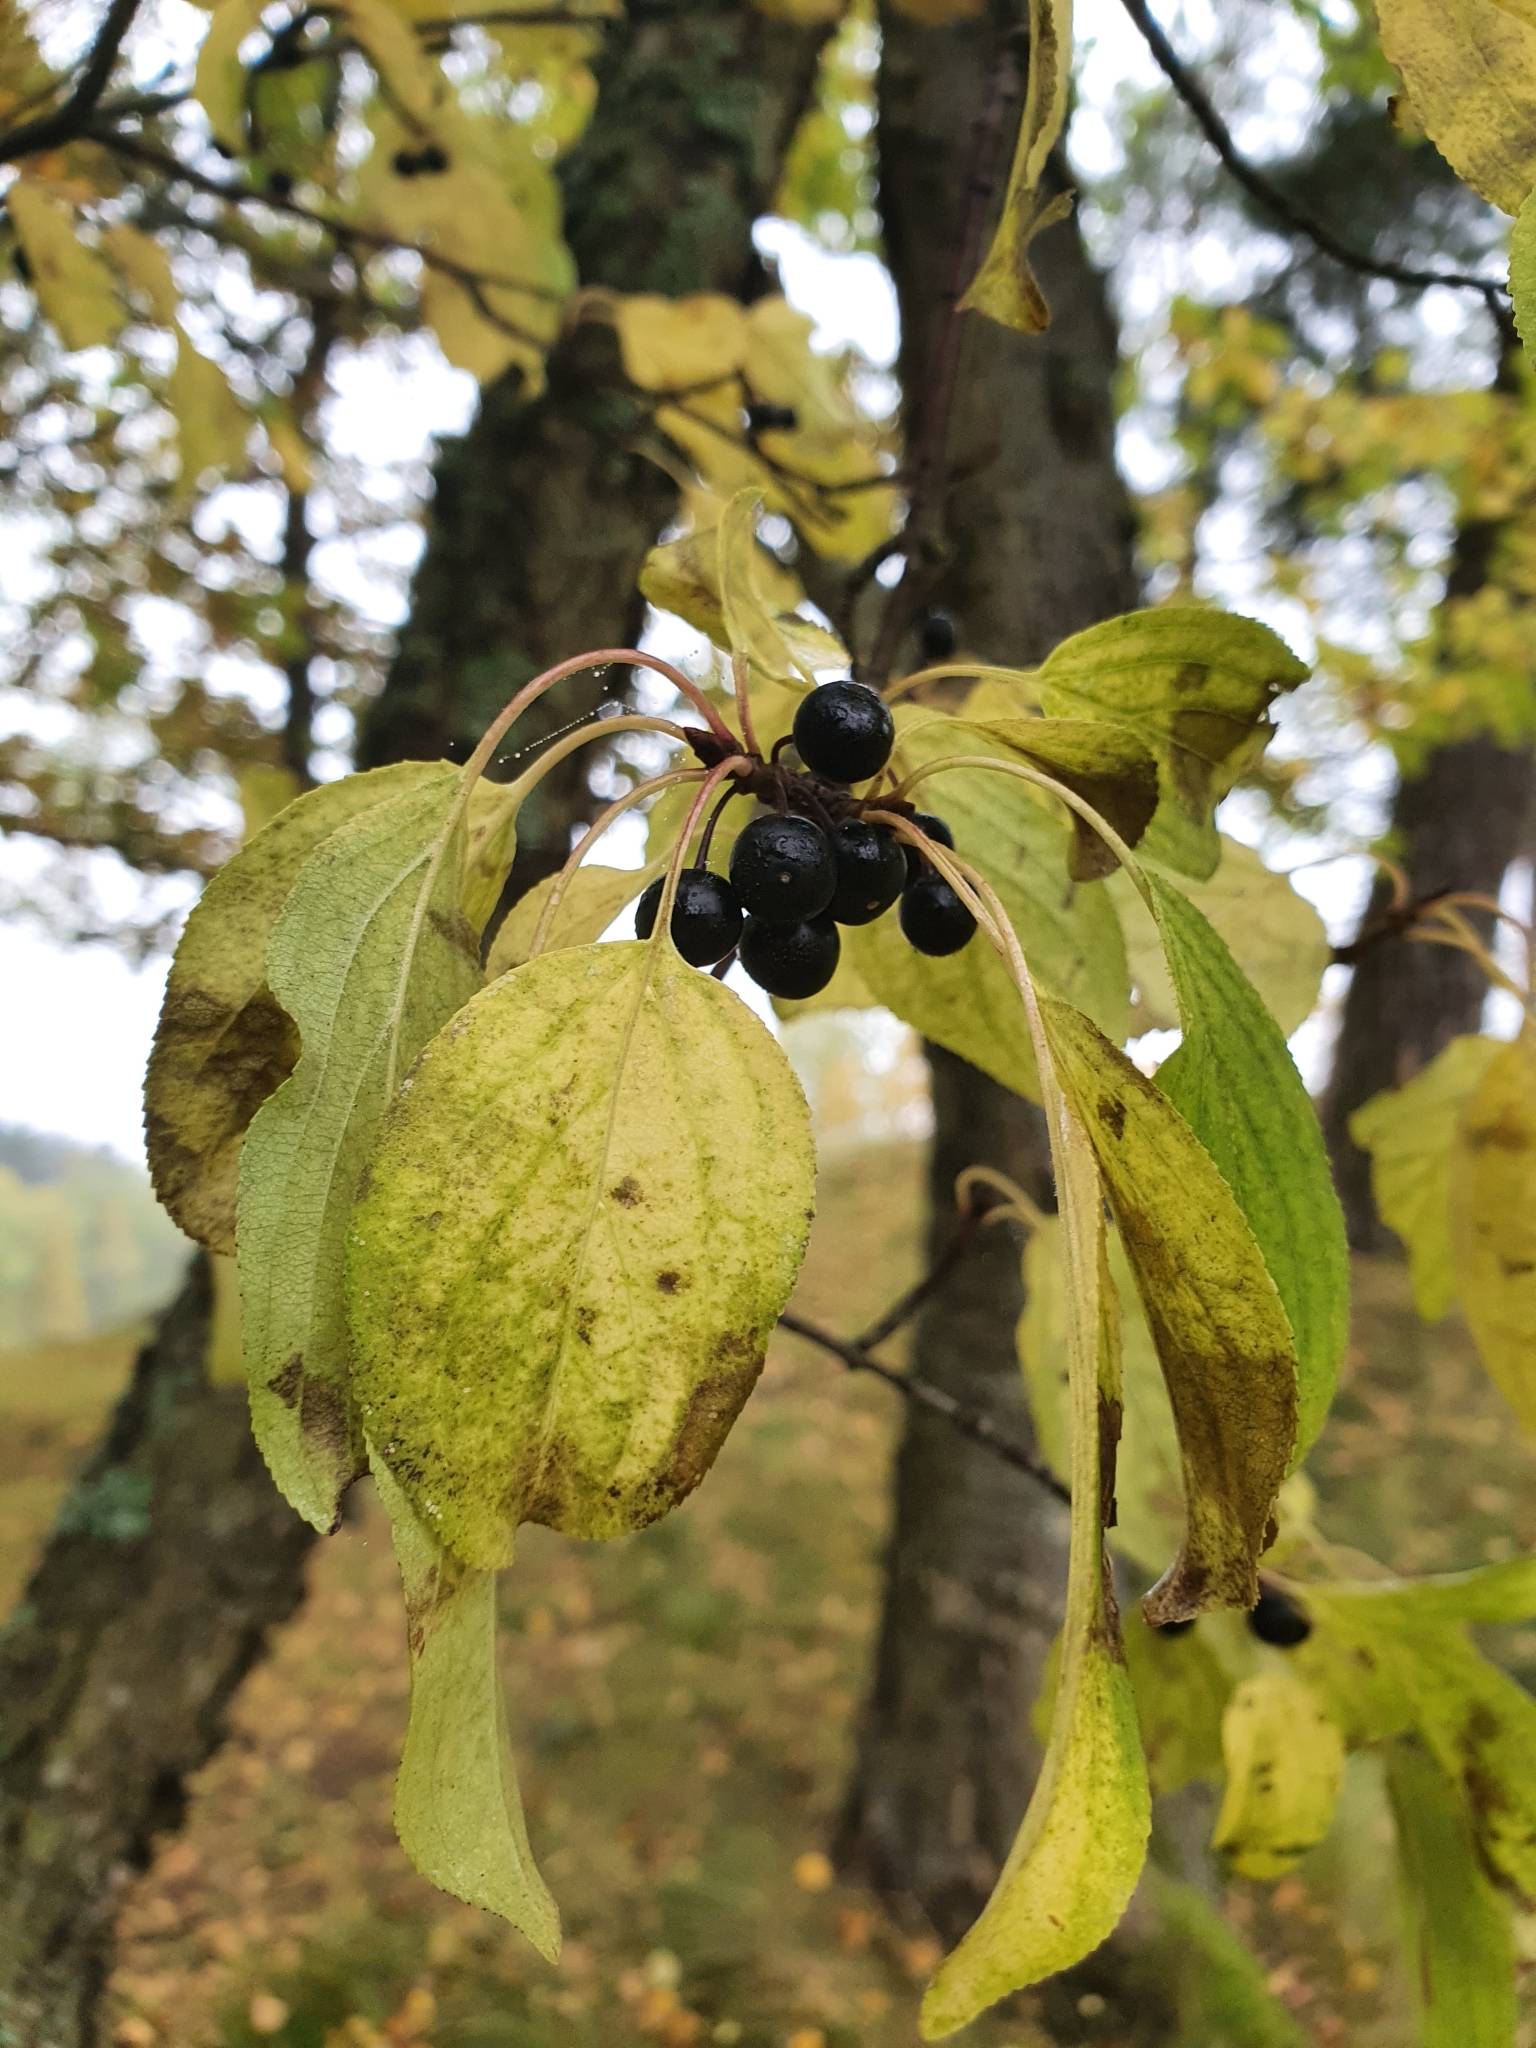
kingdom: Plantae
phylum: Tracheophyta
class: Magnoliopsida
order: Rosales
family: Rhamnaceae
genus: Rhamnus
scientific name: Rhamnus cathartica
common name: Common buckthorn
